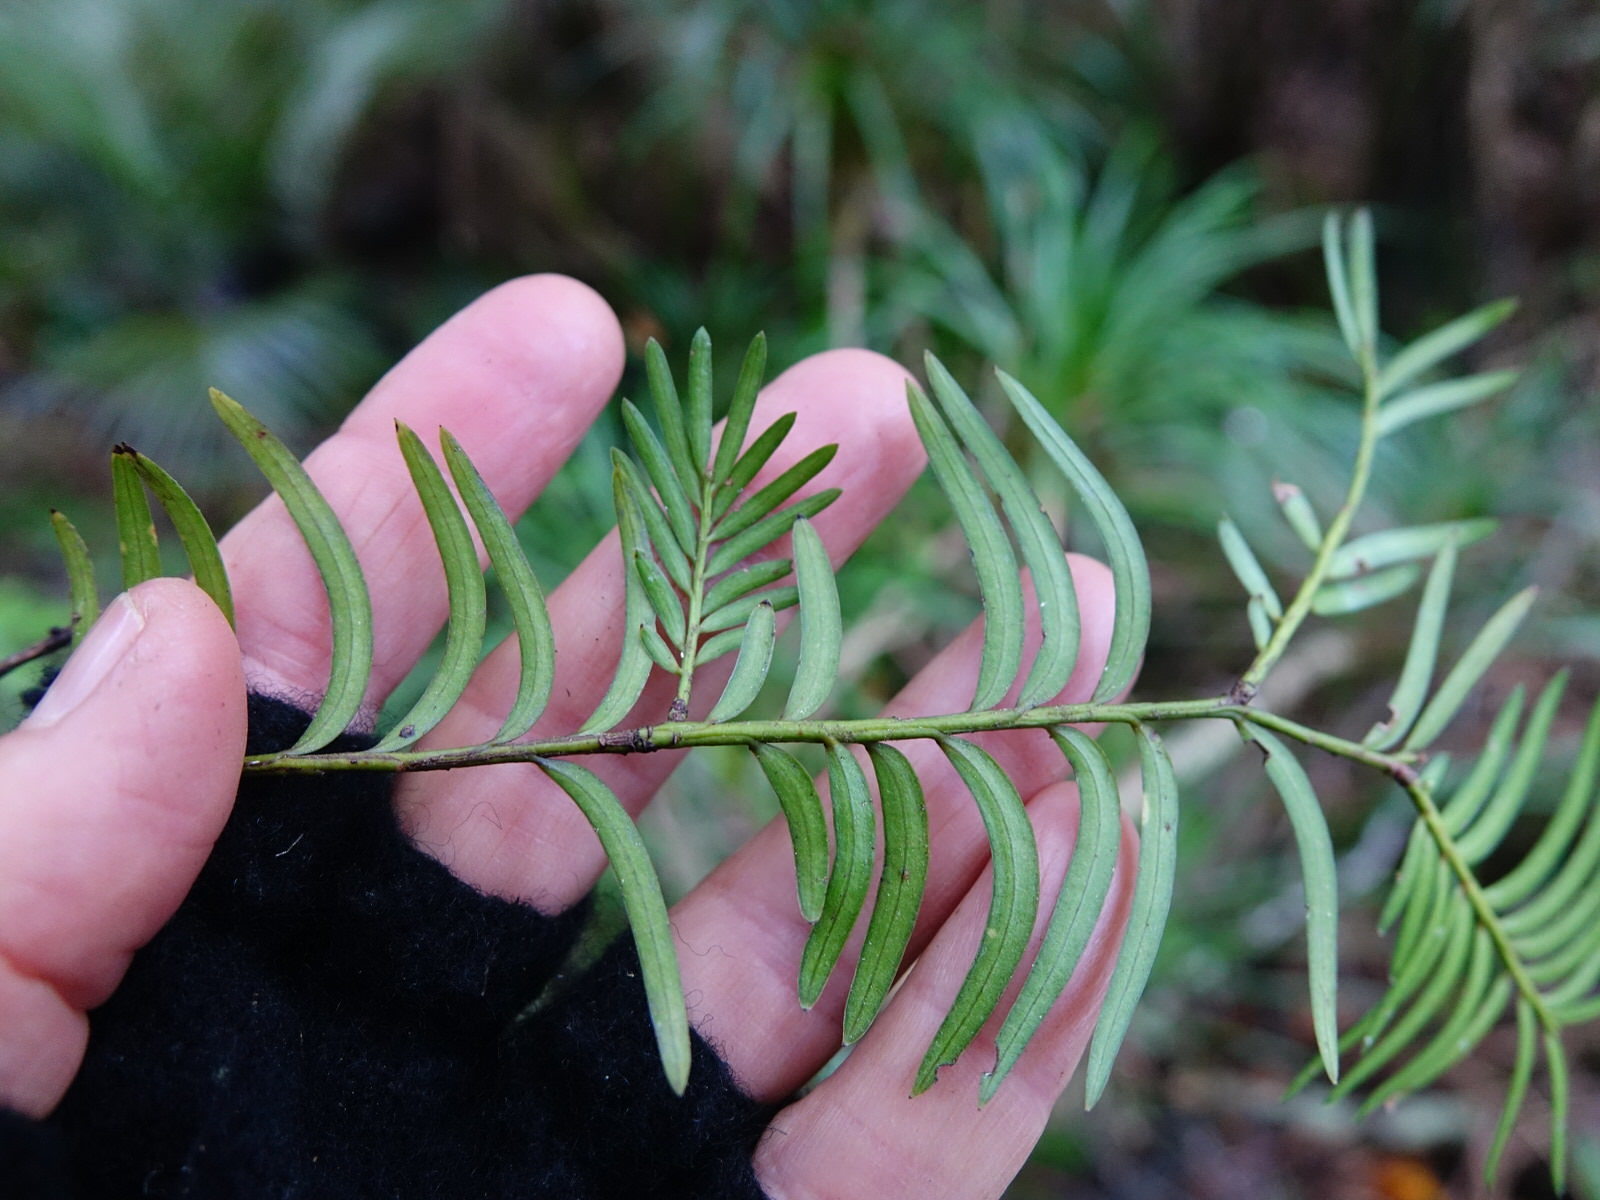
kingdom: Plantae
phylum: Tracheophyta
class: Pinopsida
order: Pinales
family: Podocarpaceae
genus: Prumnopitys
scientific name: Prumnopitys ferruginea
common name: Brown pine
